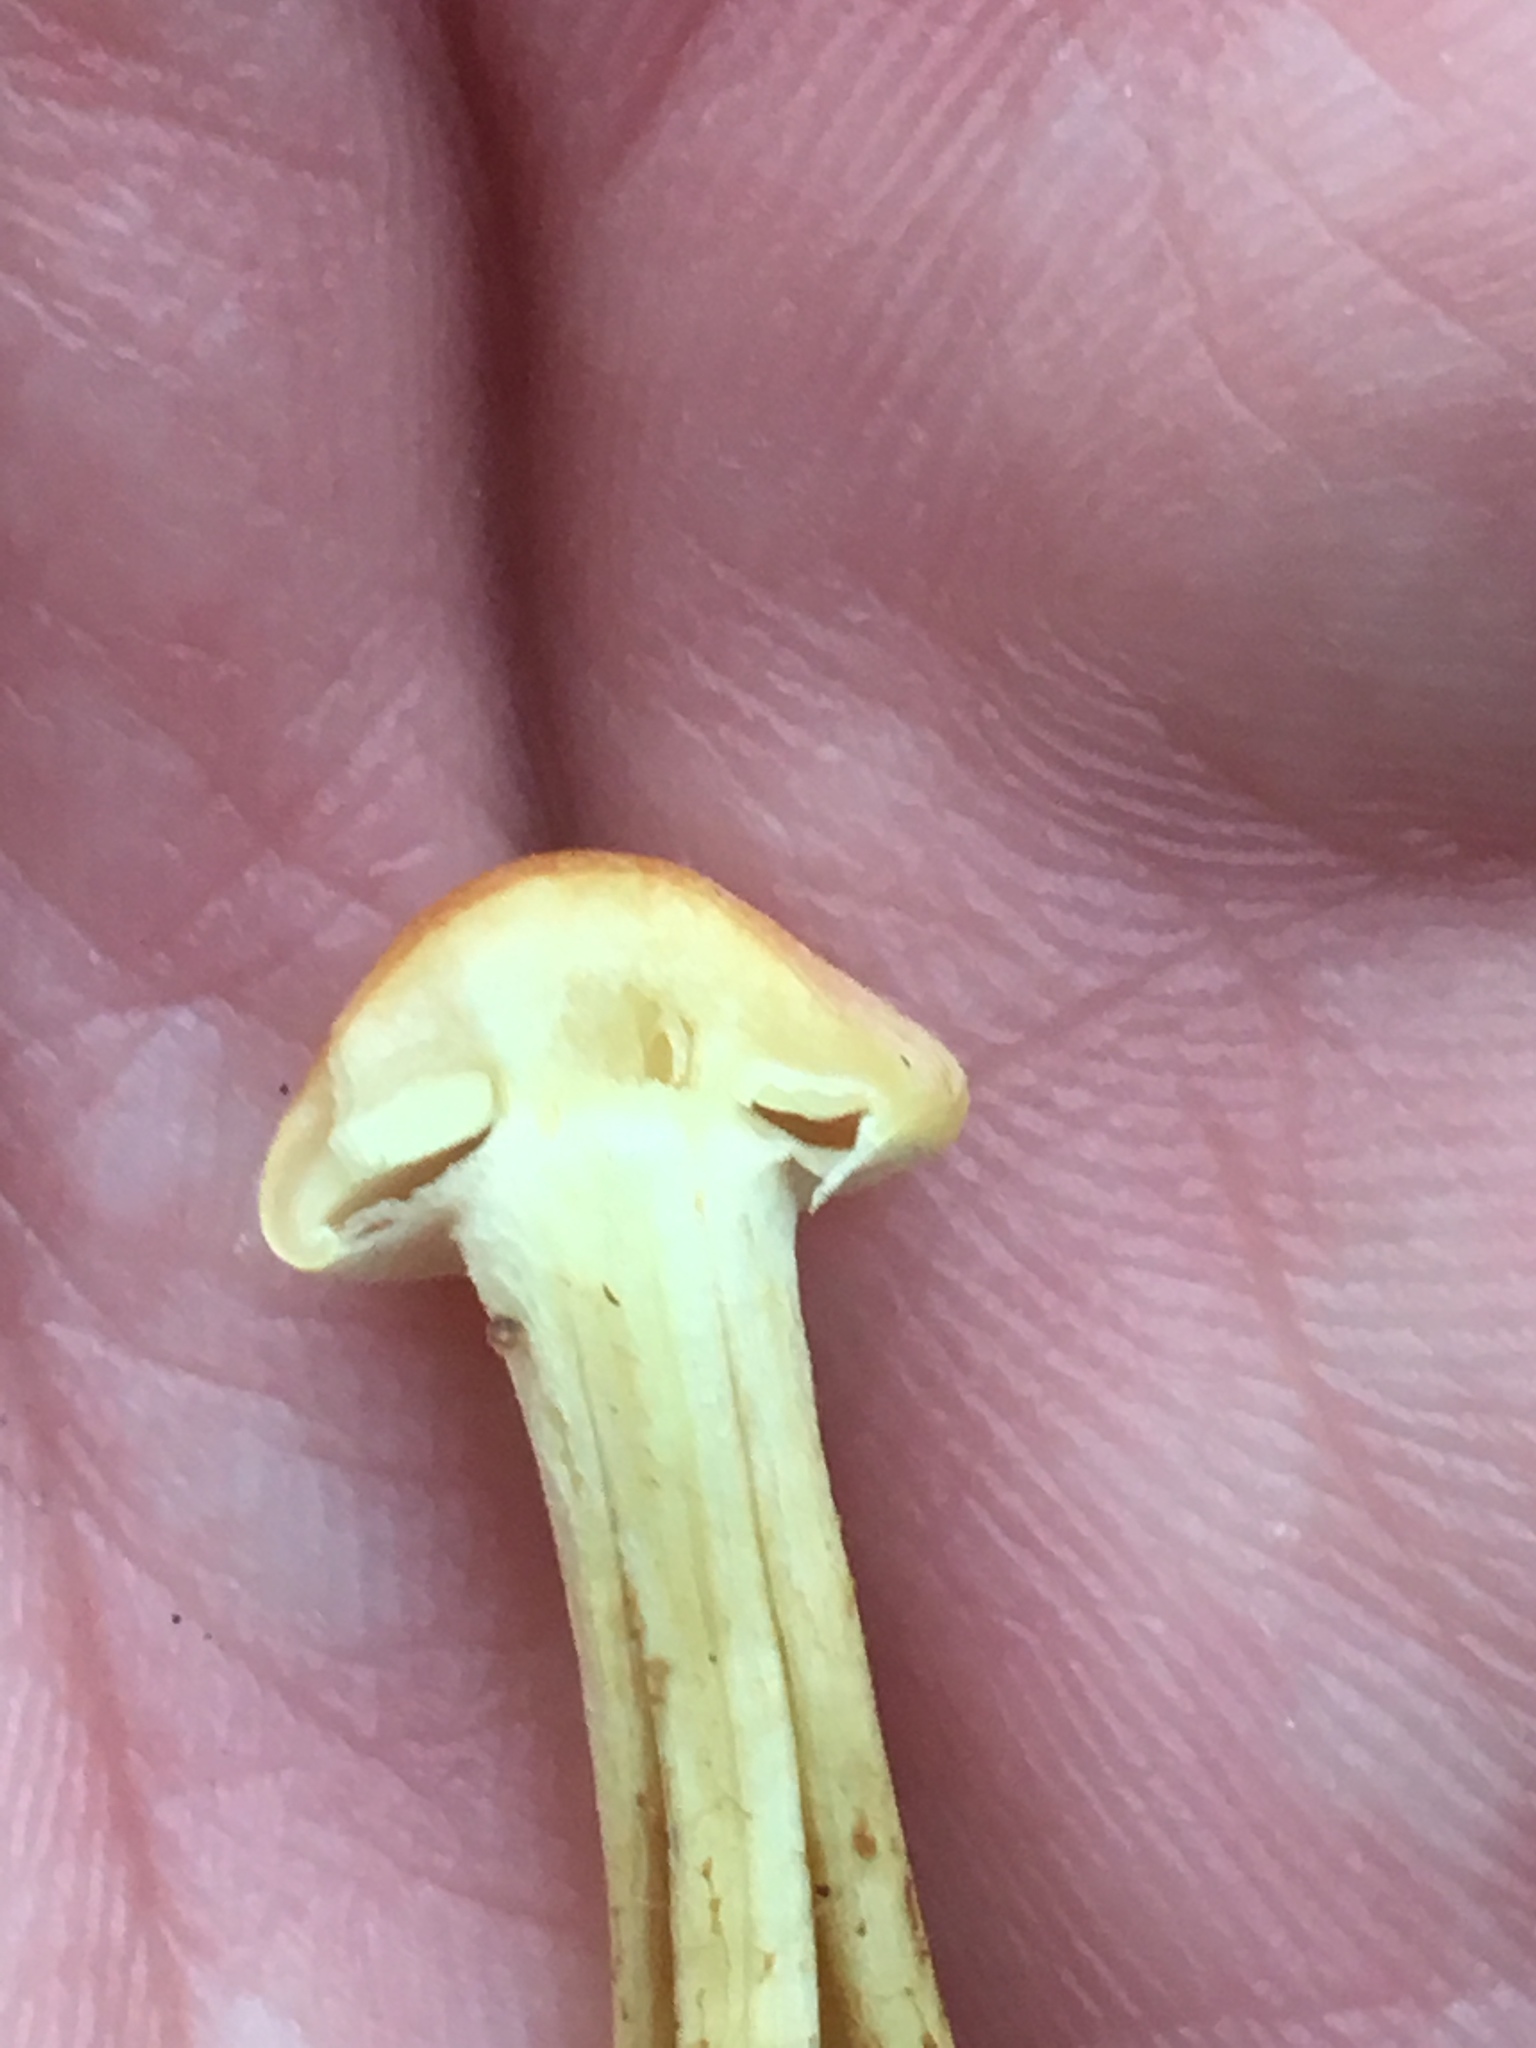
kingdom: Fungi
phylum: Basidiomycota
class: Agaricomycetes
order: Agaricales
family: Strophariaceae
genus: Hypholoma
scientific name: Hypholoma fasciculare
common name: Sulphur tuft
